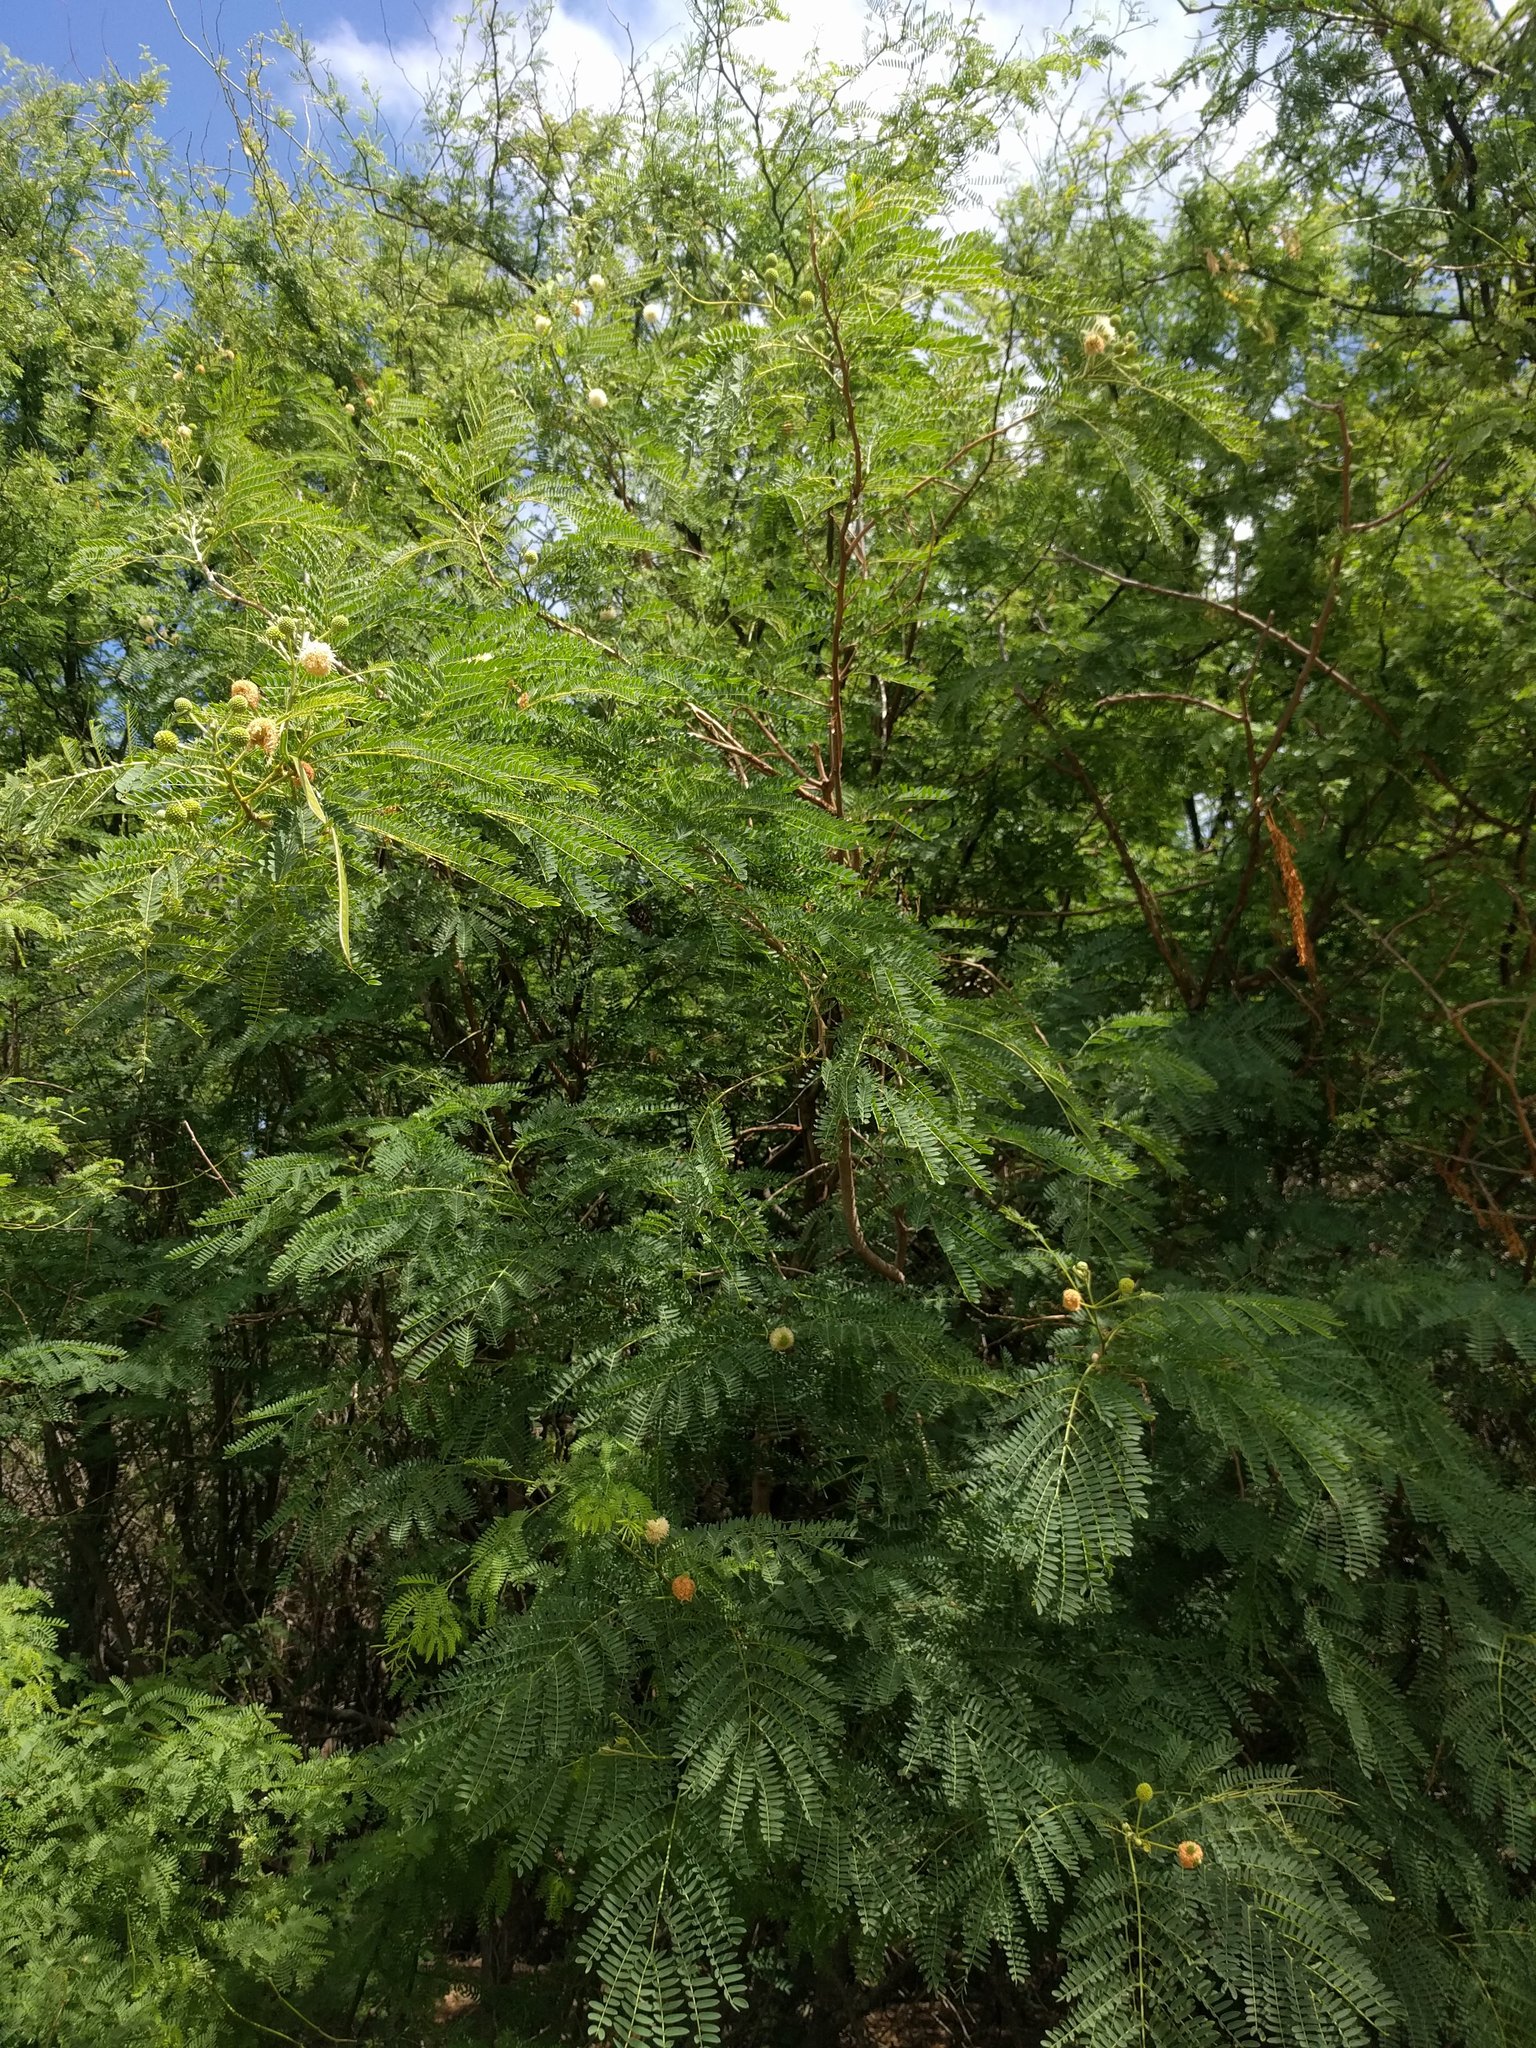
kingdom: Plantae
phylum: Tracheophyta
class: Magnoliopsida
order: Fabales
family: Fabaceae
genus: Leucaena
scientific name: Leucaena leucocephala
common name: White leadtree
